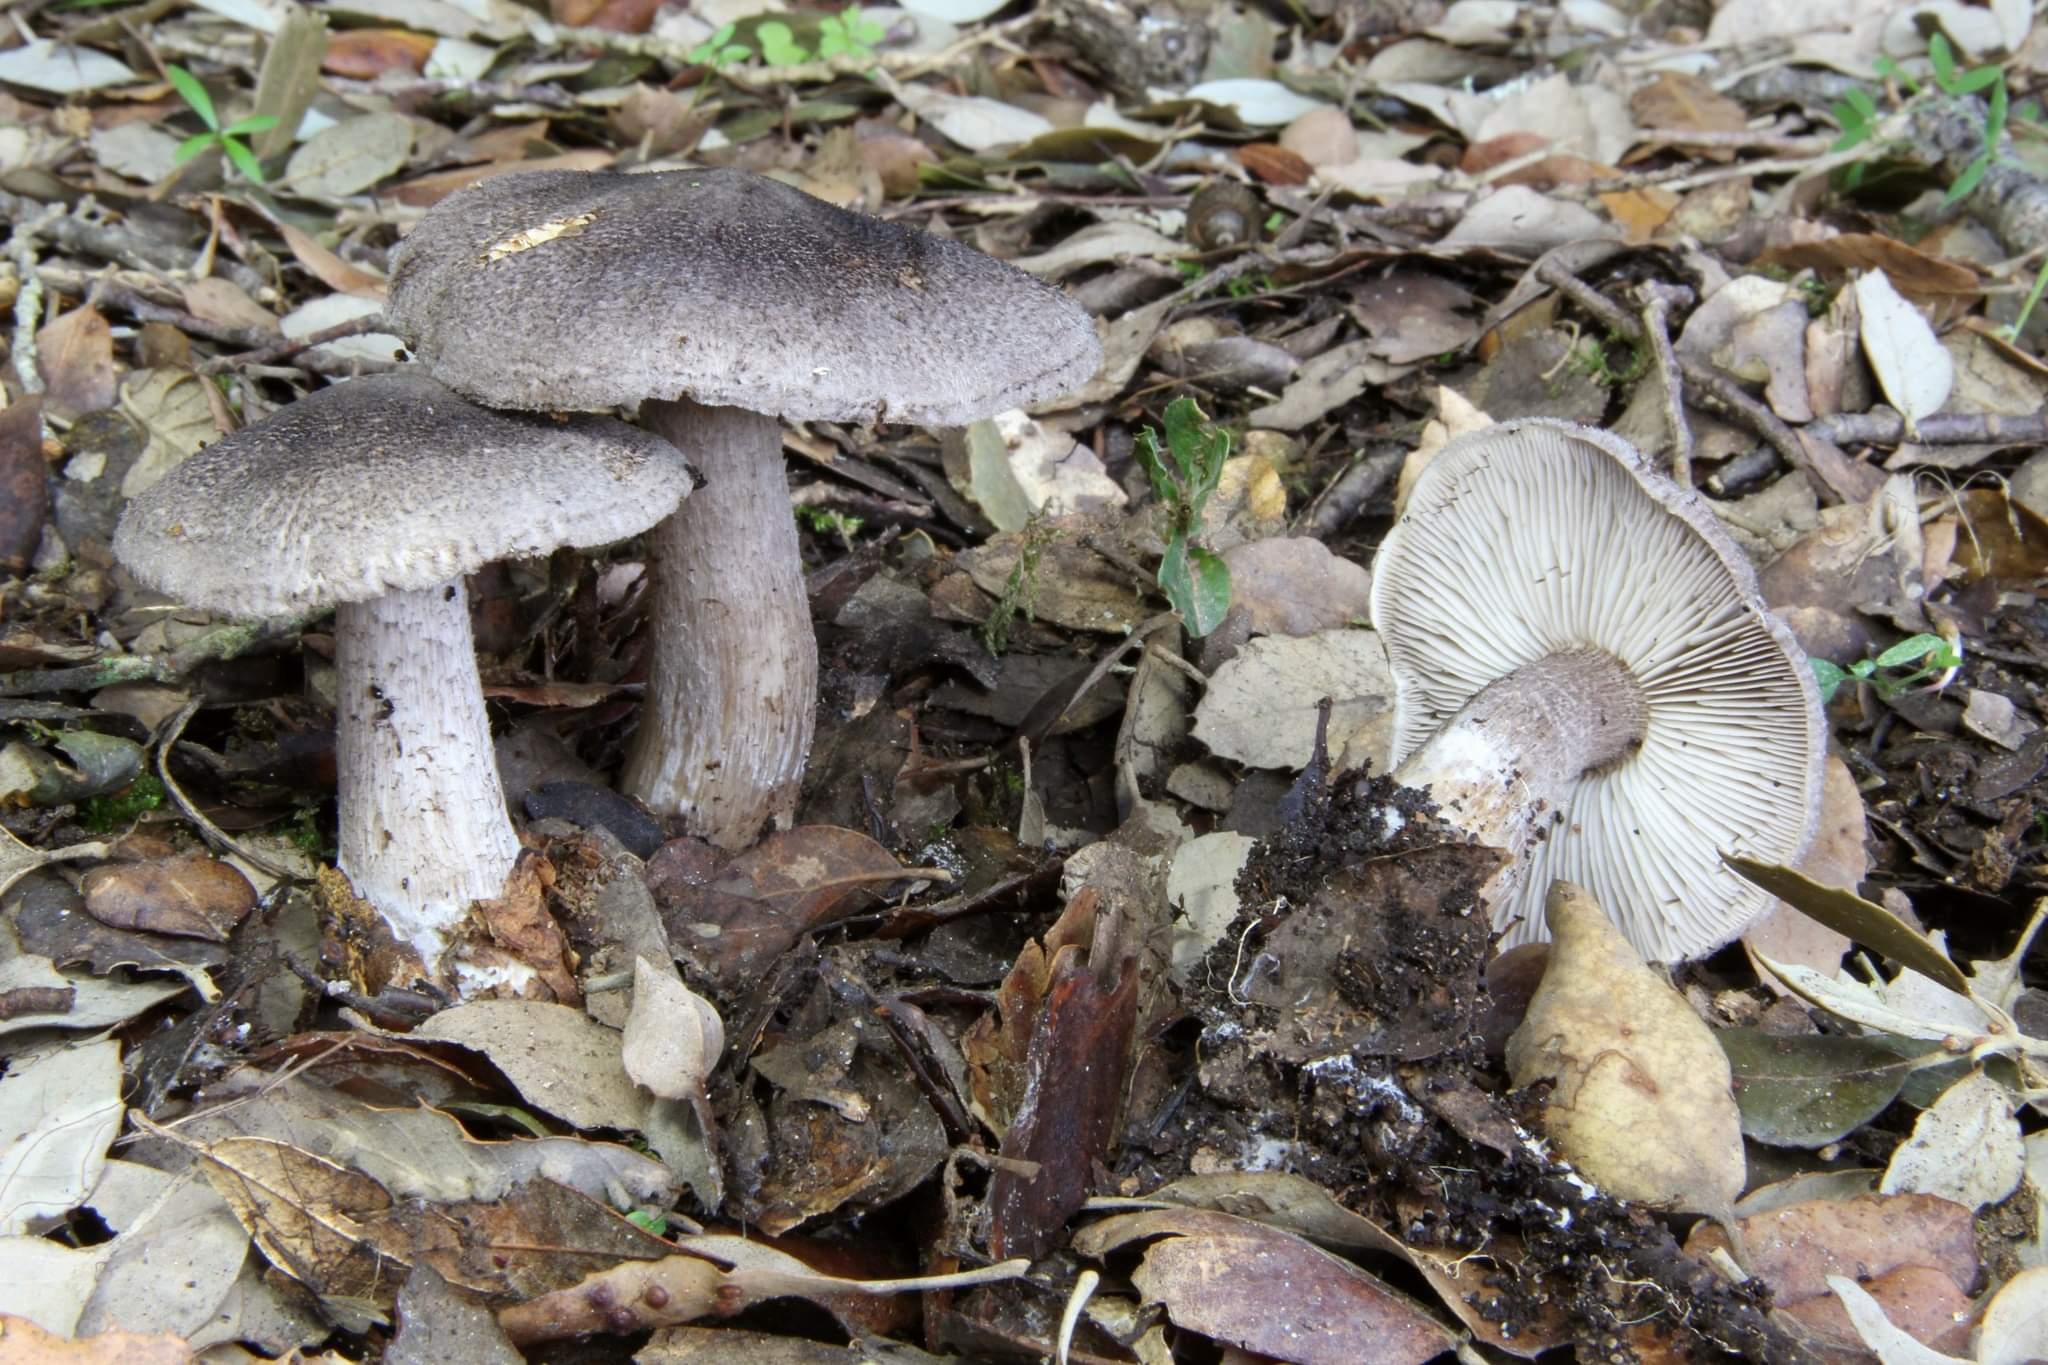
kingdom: Fungi
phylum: Basidiomycota
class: Agaricomycetes
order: Agaricales
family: Tricholomataceae
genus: Tricholoma
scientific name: Tricholoma squarrulosum
